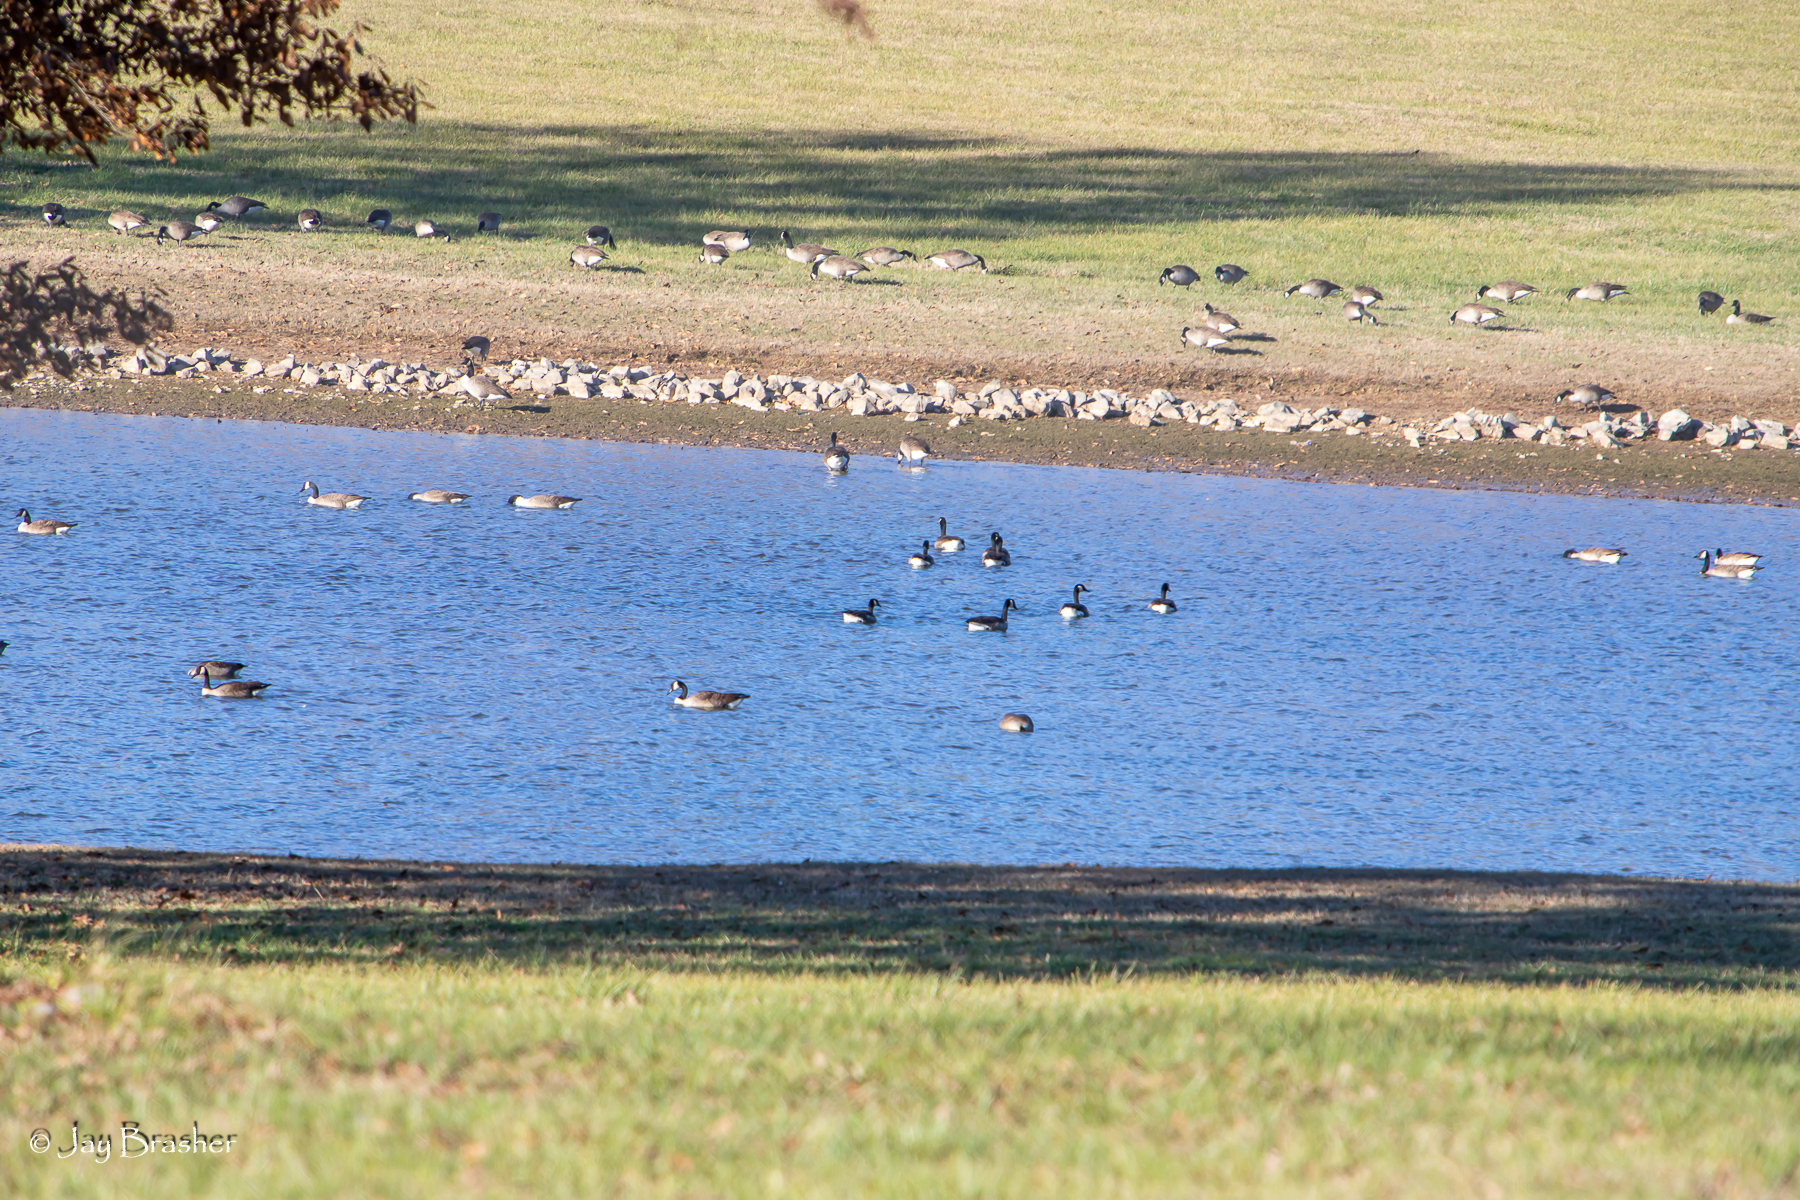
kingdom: Animalia
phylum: Chordata
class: Aves
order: Anseriformes
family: Anatidae
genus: Branta
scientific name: Branta canadensis
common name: Canada goose
